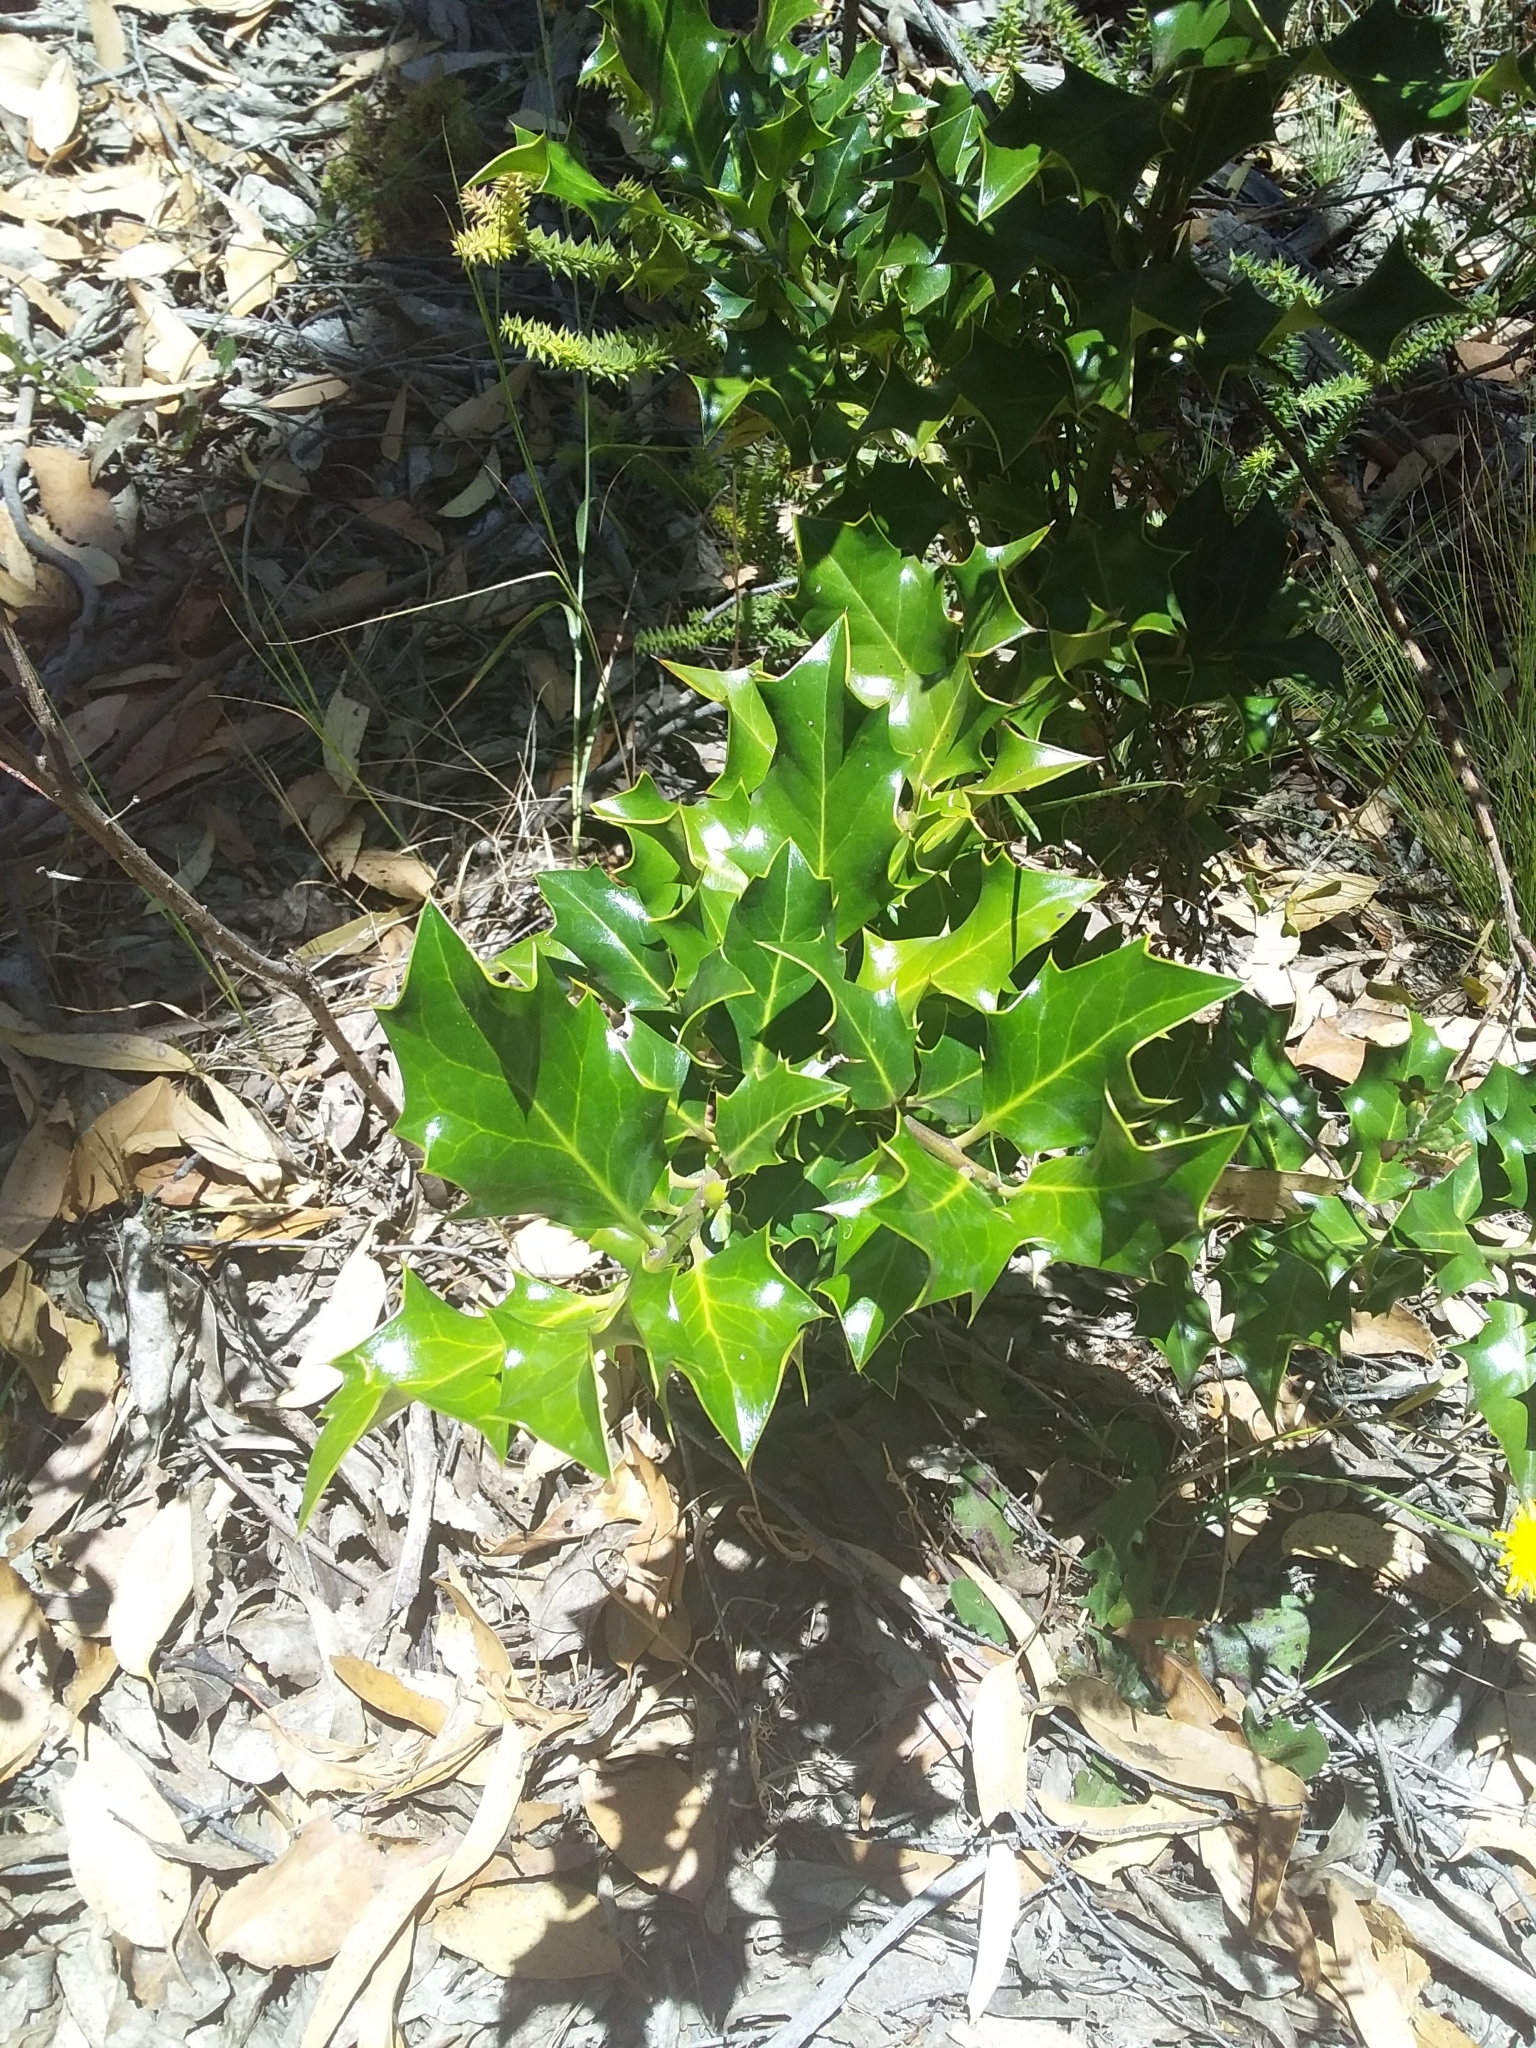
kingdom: Plantae
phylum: Tracheophyta
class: Magnoliopsida
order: Aquifoliales
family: Aquifoliaceae
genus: Ilex
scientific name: Ilex aquifolium
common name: English holly
